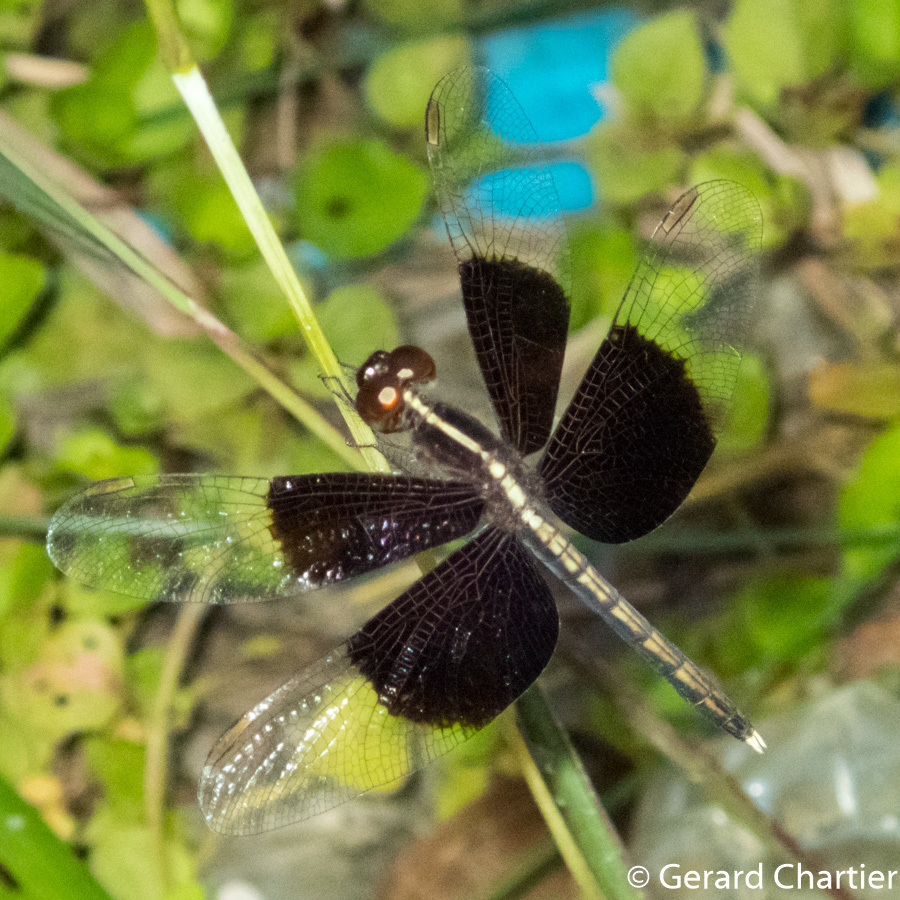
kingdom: Animalia
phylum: Arthropoda
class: Insecta
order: Odonata
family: Libellulidae
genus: Neurothemis
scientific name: Neurothemis tullia
